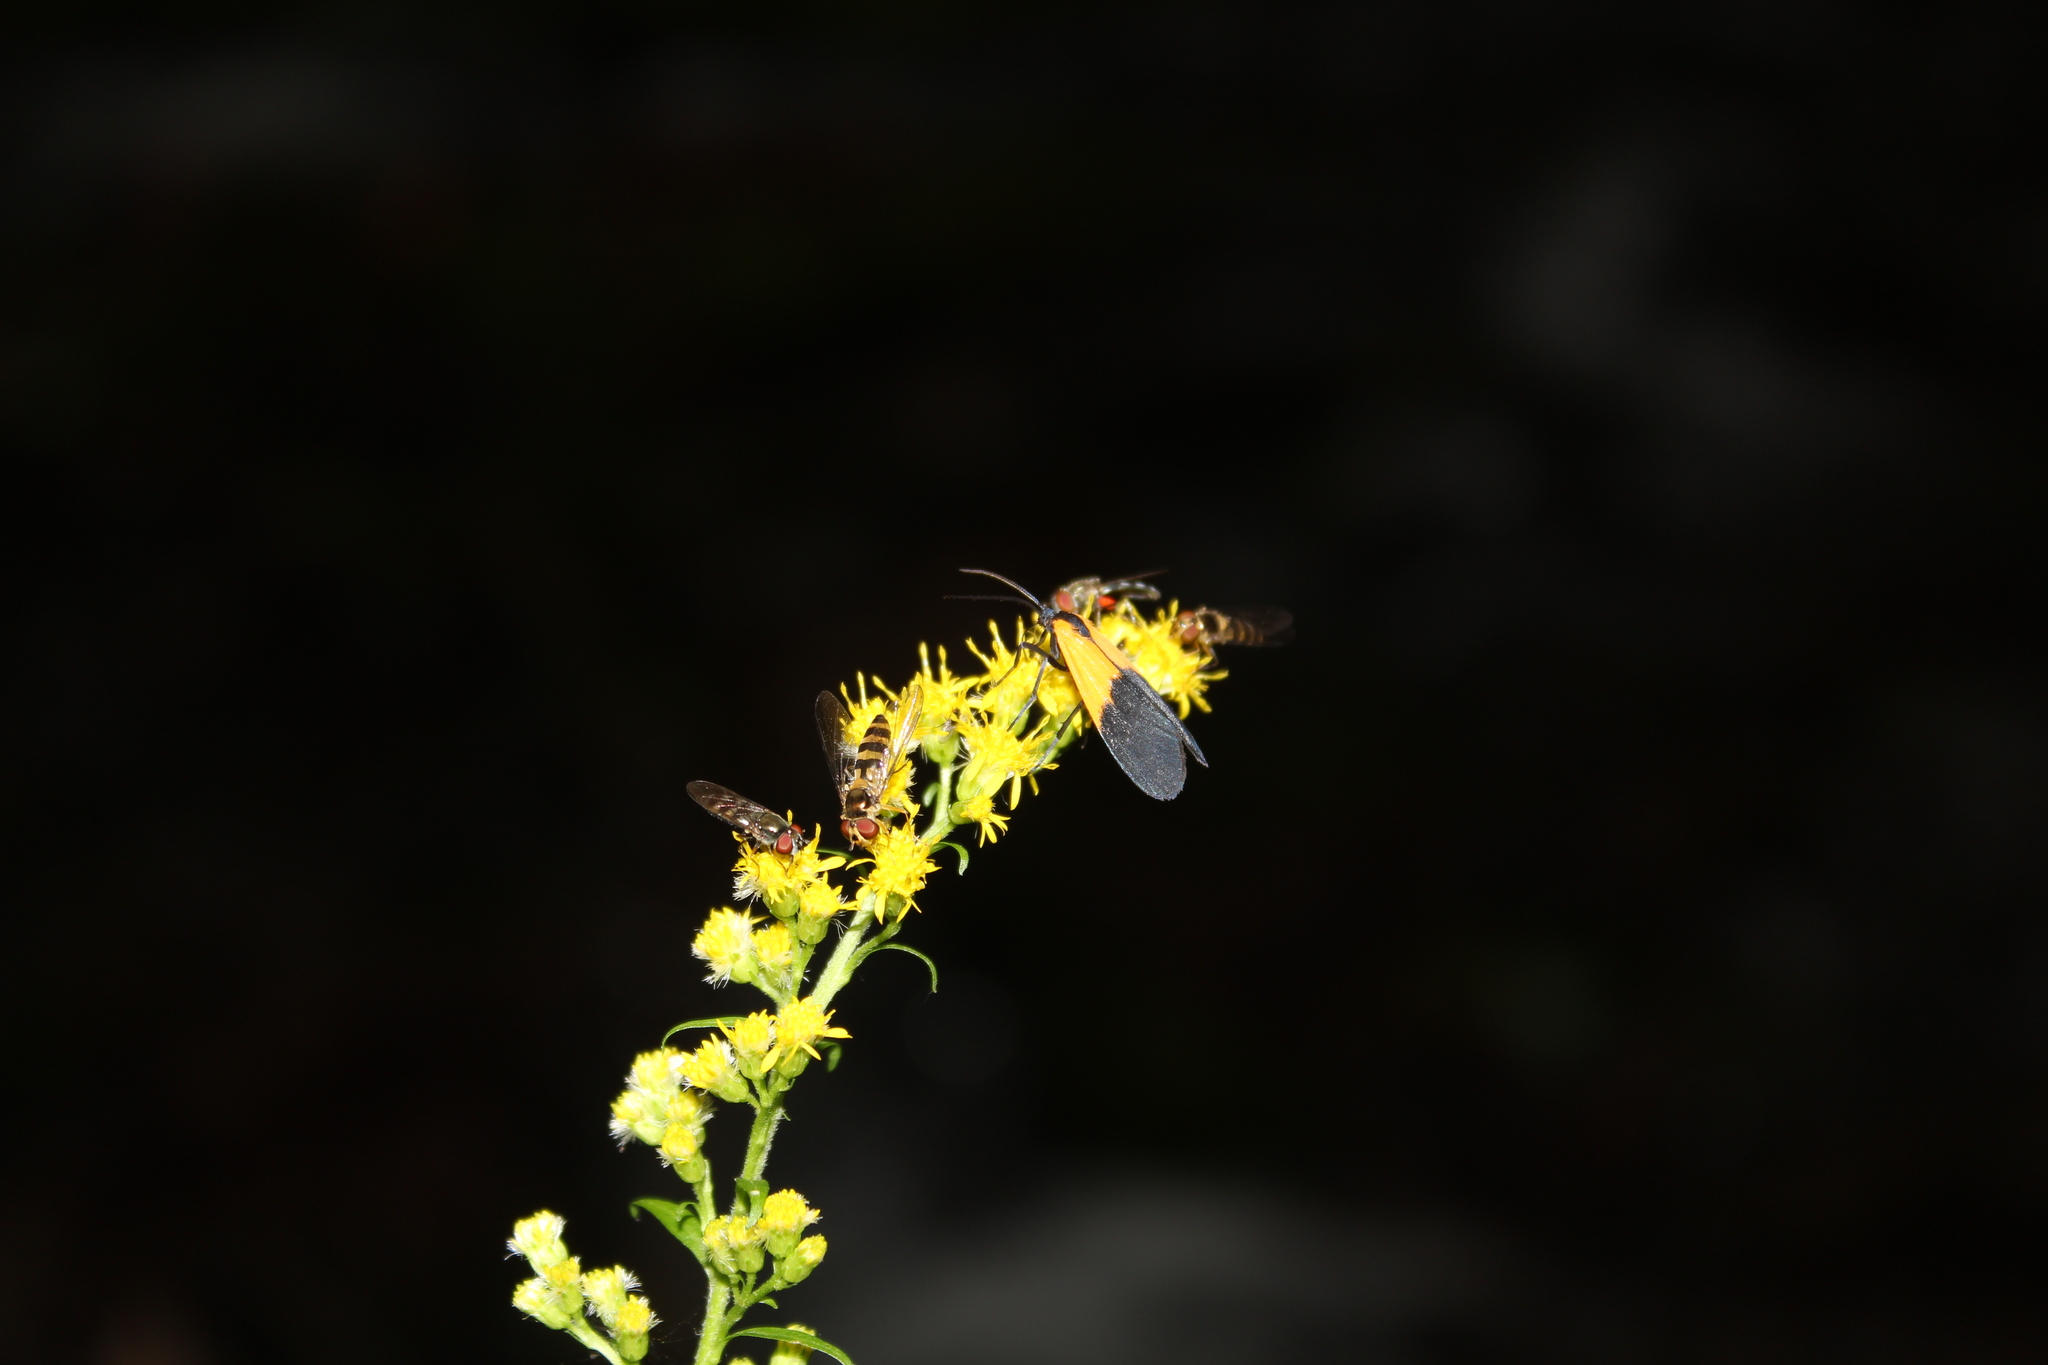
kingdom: Animalia
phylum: Arthropoda
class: Insecta
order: Diptera
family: Syrphidae
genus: Meliscaeva
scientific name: Meliscaeva cinctella
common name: American thintail fly
